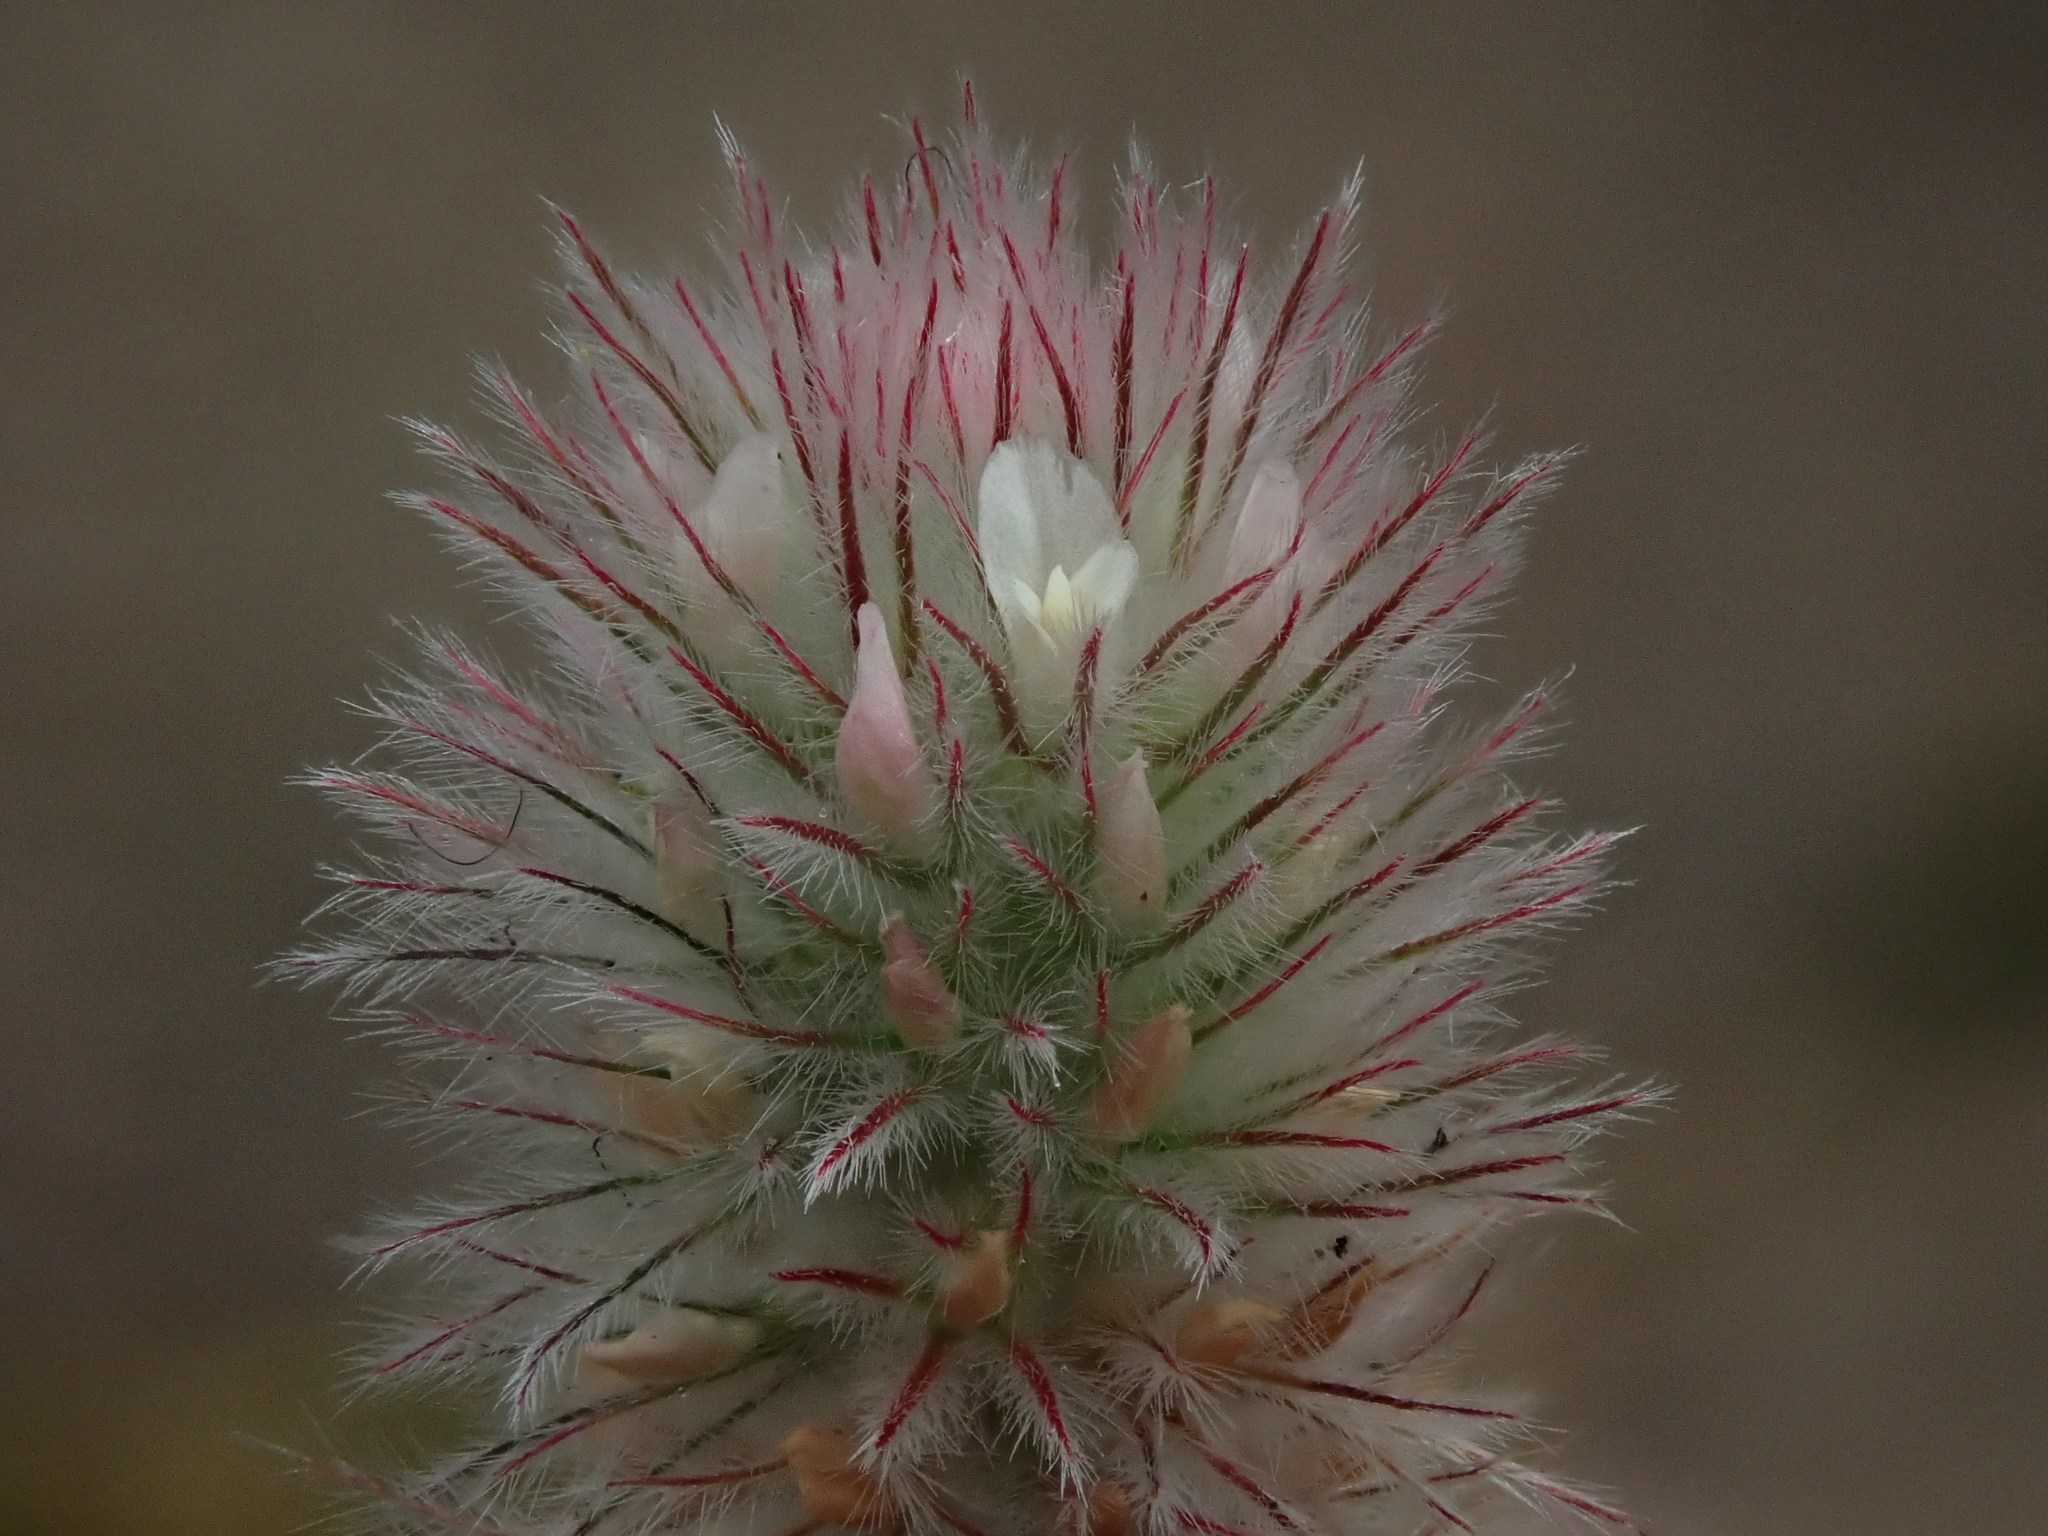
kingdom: Plantae
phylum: Tracheophyta
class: Magnoliopsida
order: Fabales
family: Fabaceae
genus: Trifolium
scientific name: Trifolium arvense
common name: Hare's-foot clover
